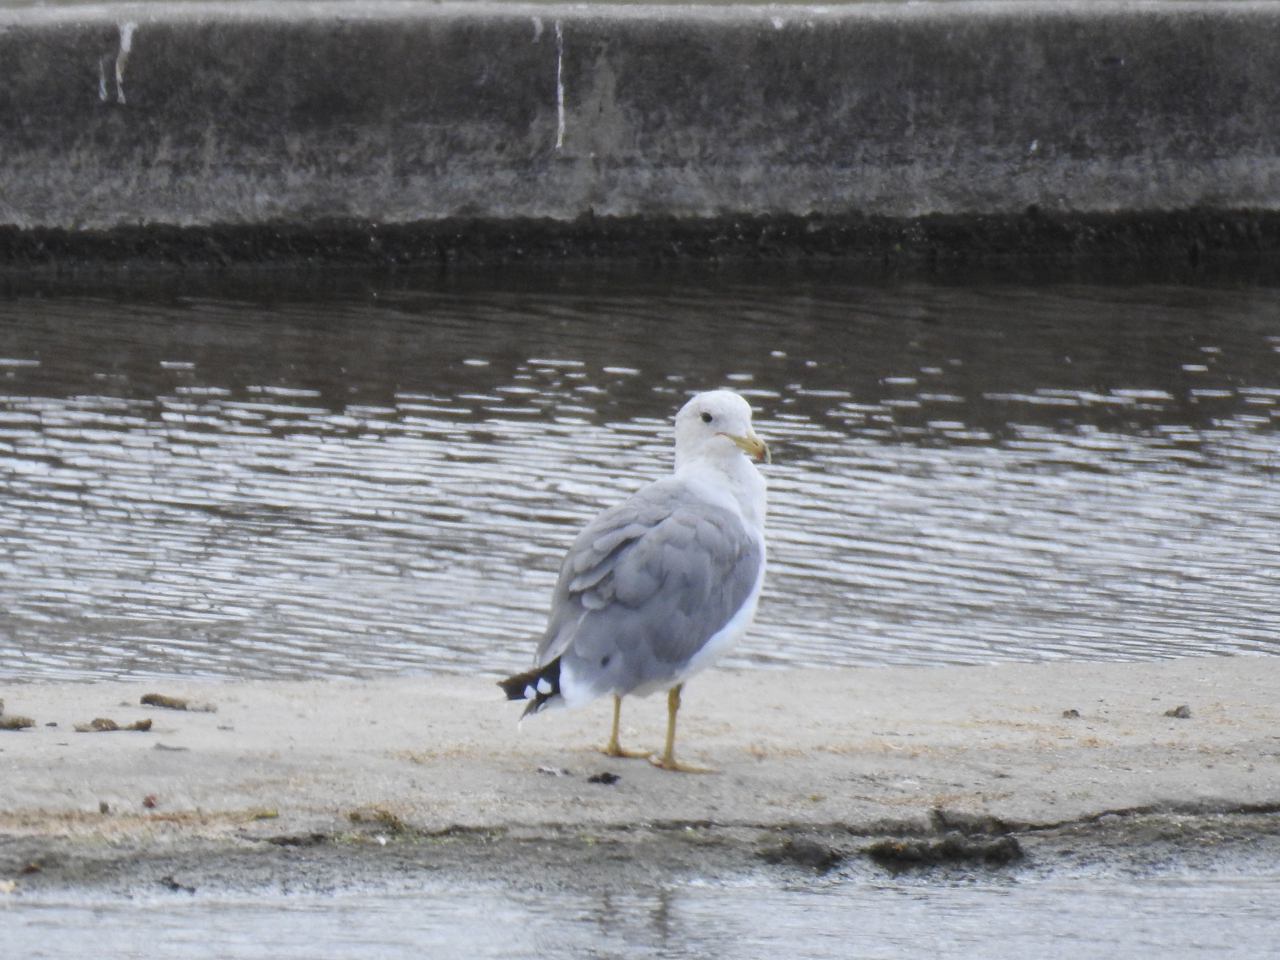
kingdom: Animalia
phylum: Chordata
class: Aves
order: Charadriiformes
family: Laridae
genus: Larus
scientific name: Larus californicus
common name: California gull
